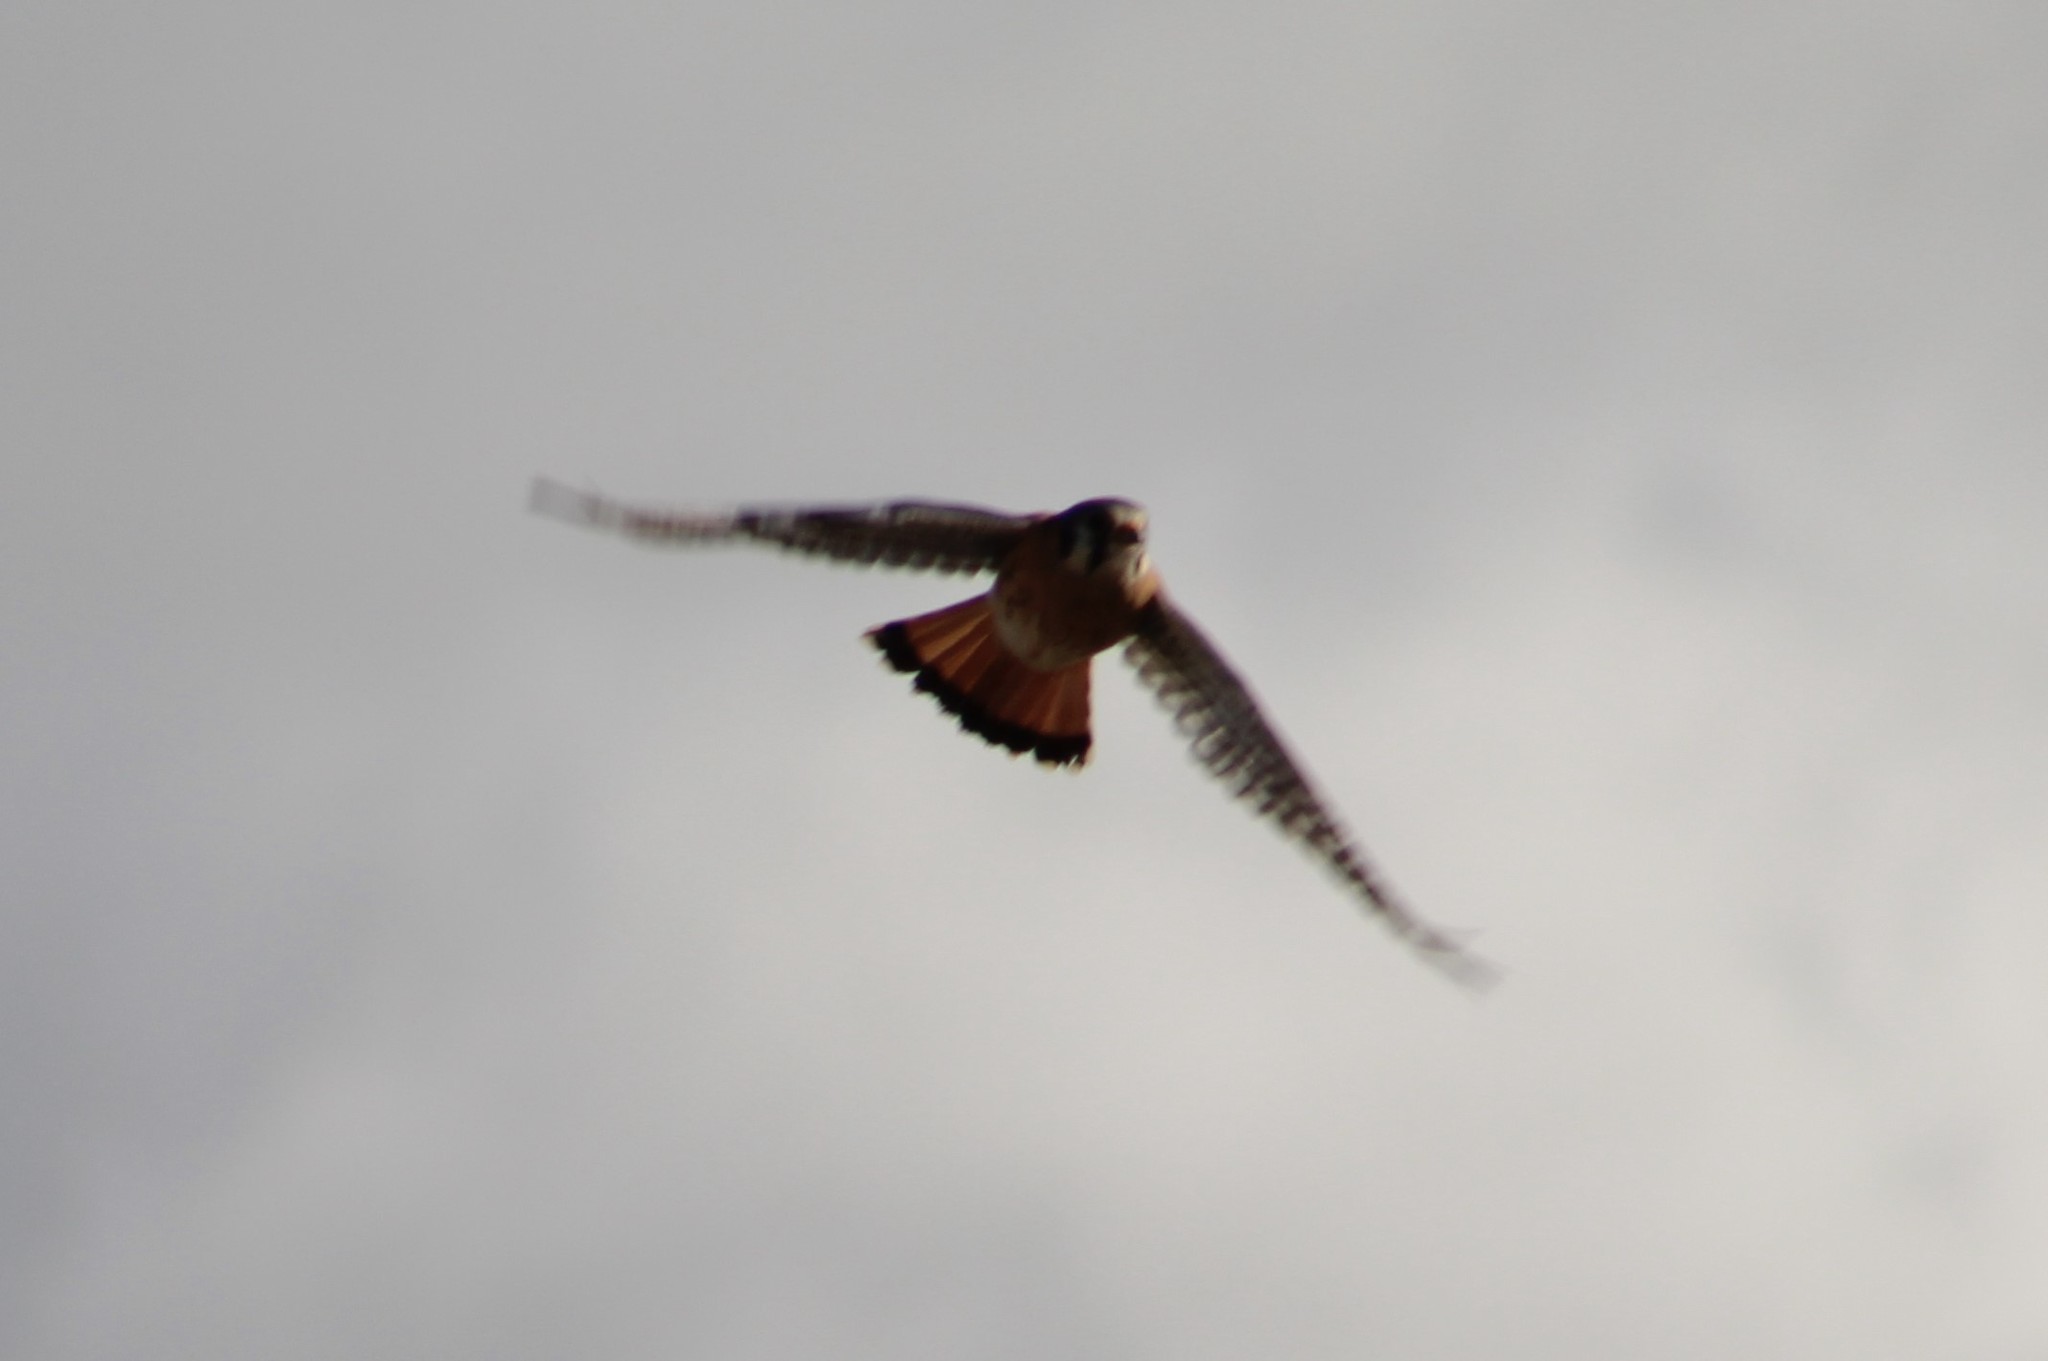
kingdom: Animalia
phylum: Chordata
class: Aves
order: Falconiformes
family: Falconidae
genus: Falco
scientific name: Falco sparverius
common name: American kestrel
